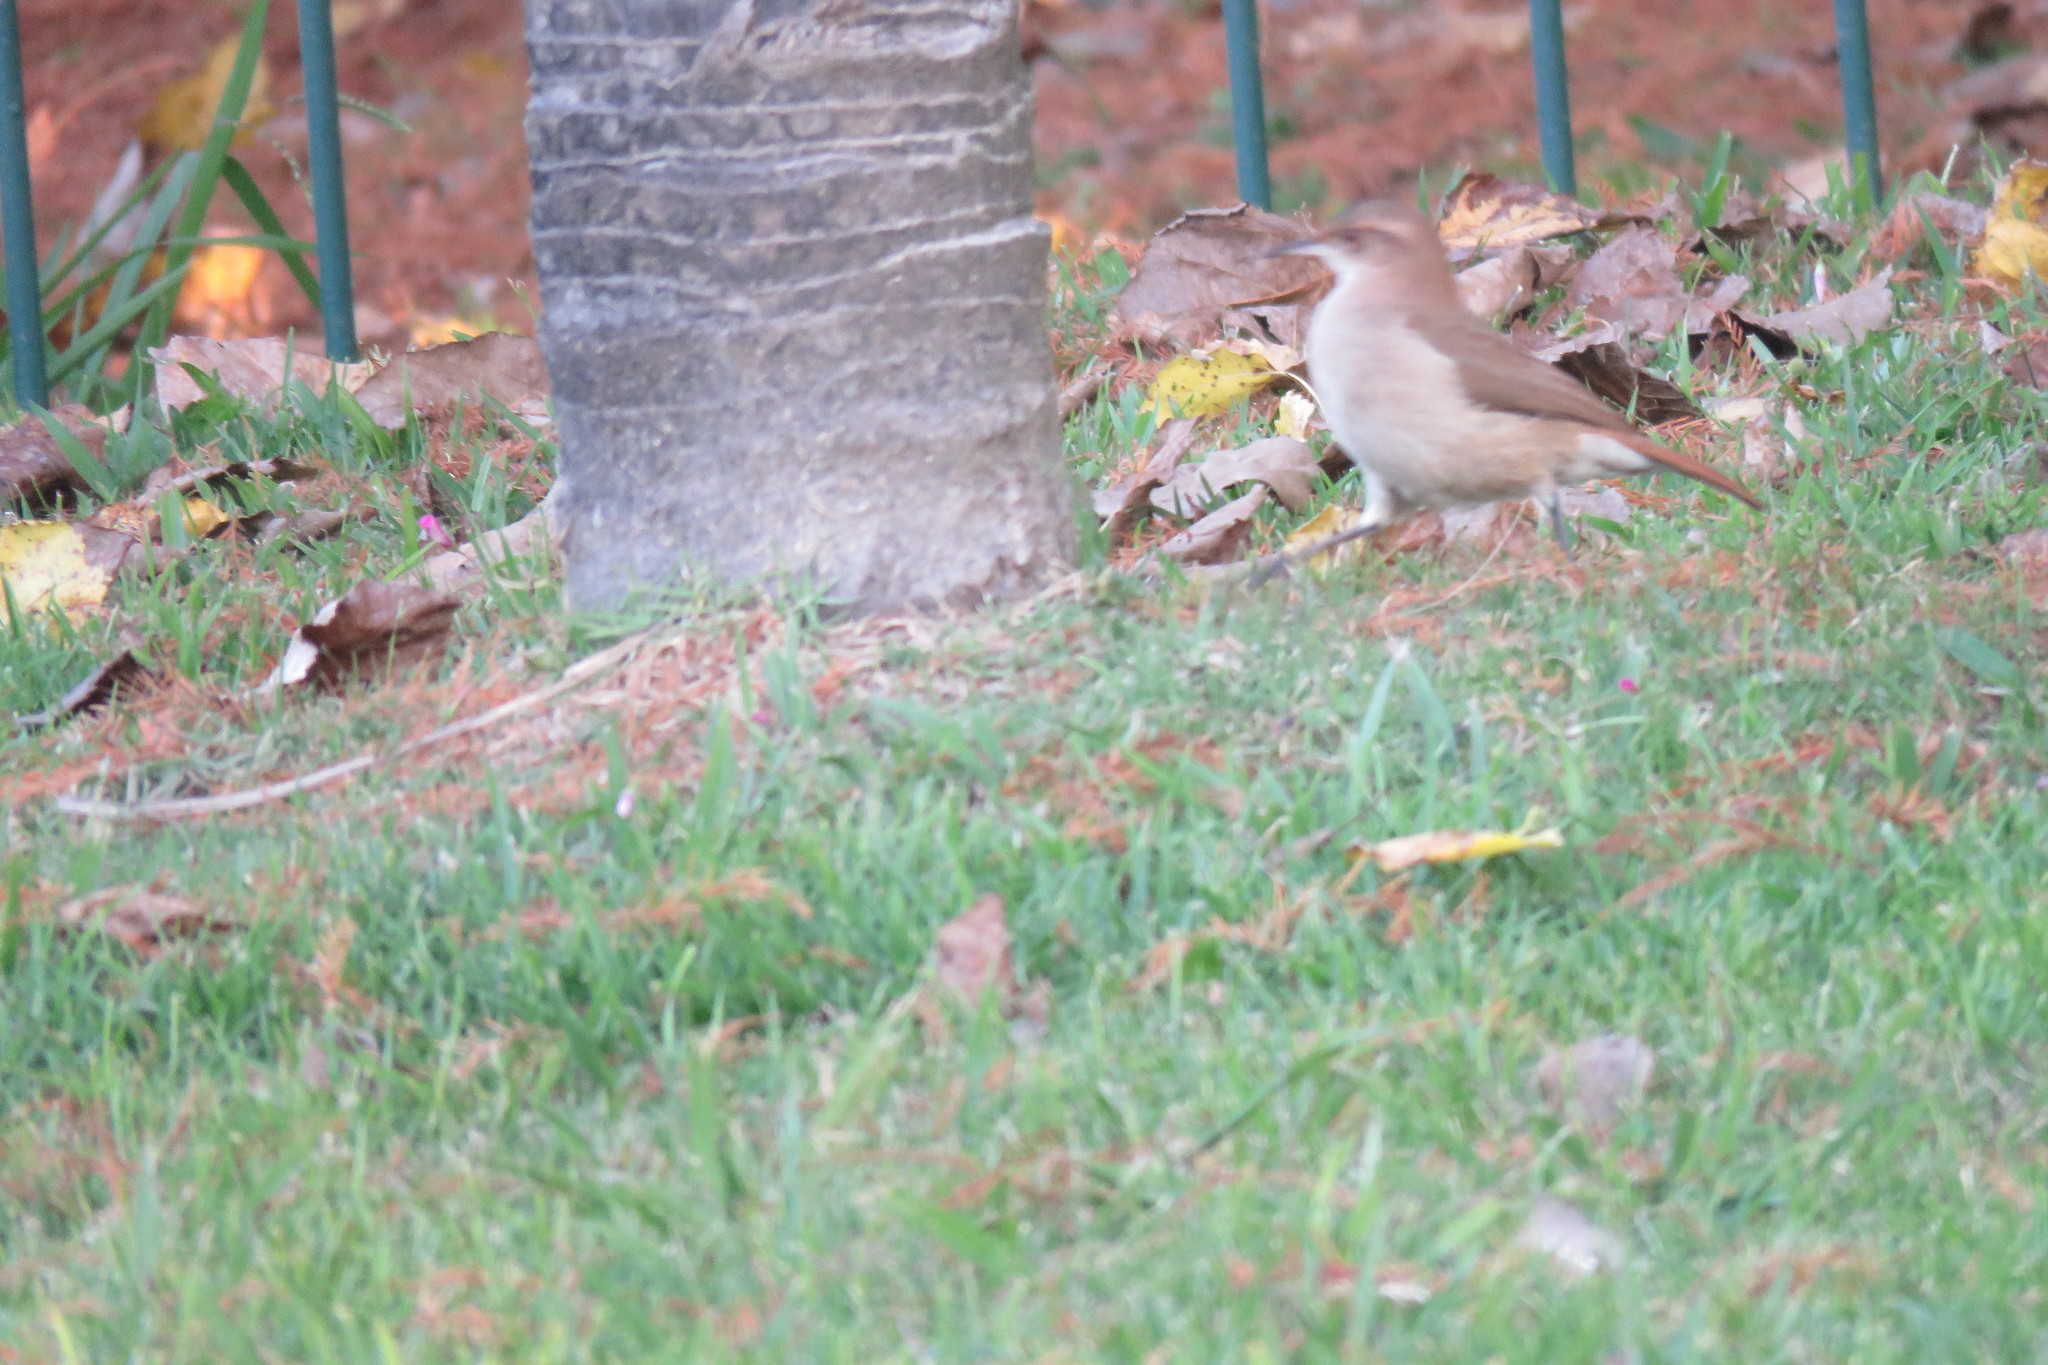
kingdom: Animalia
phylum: Chordata
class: Aves
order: Passeriformes
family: Furnariidae
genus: Furnarius
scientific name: Furnarius rufus
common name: Rufous hornero
